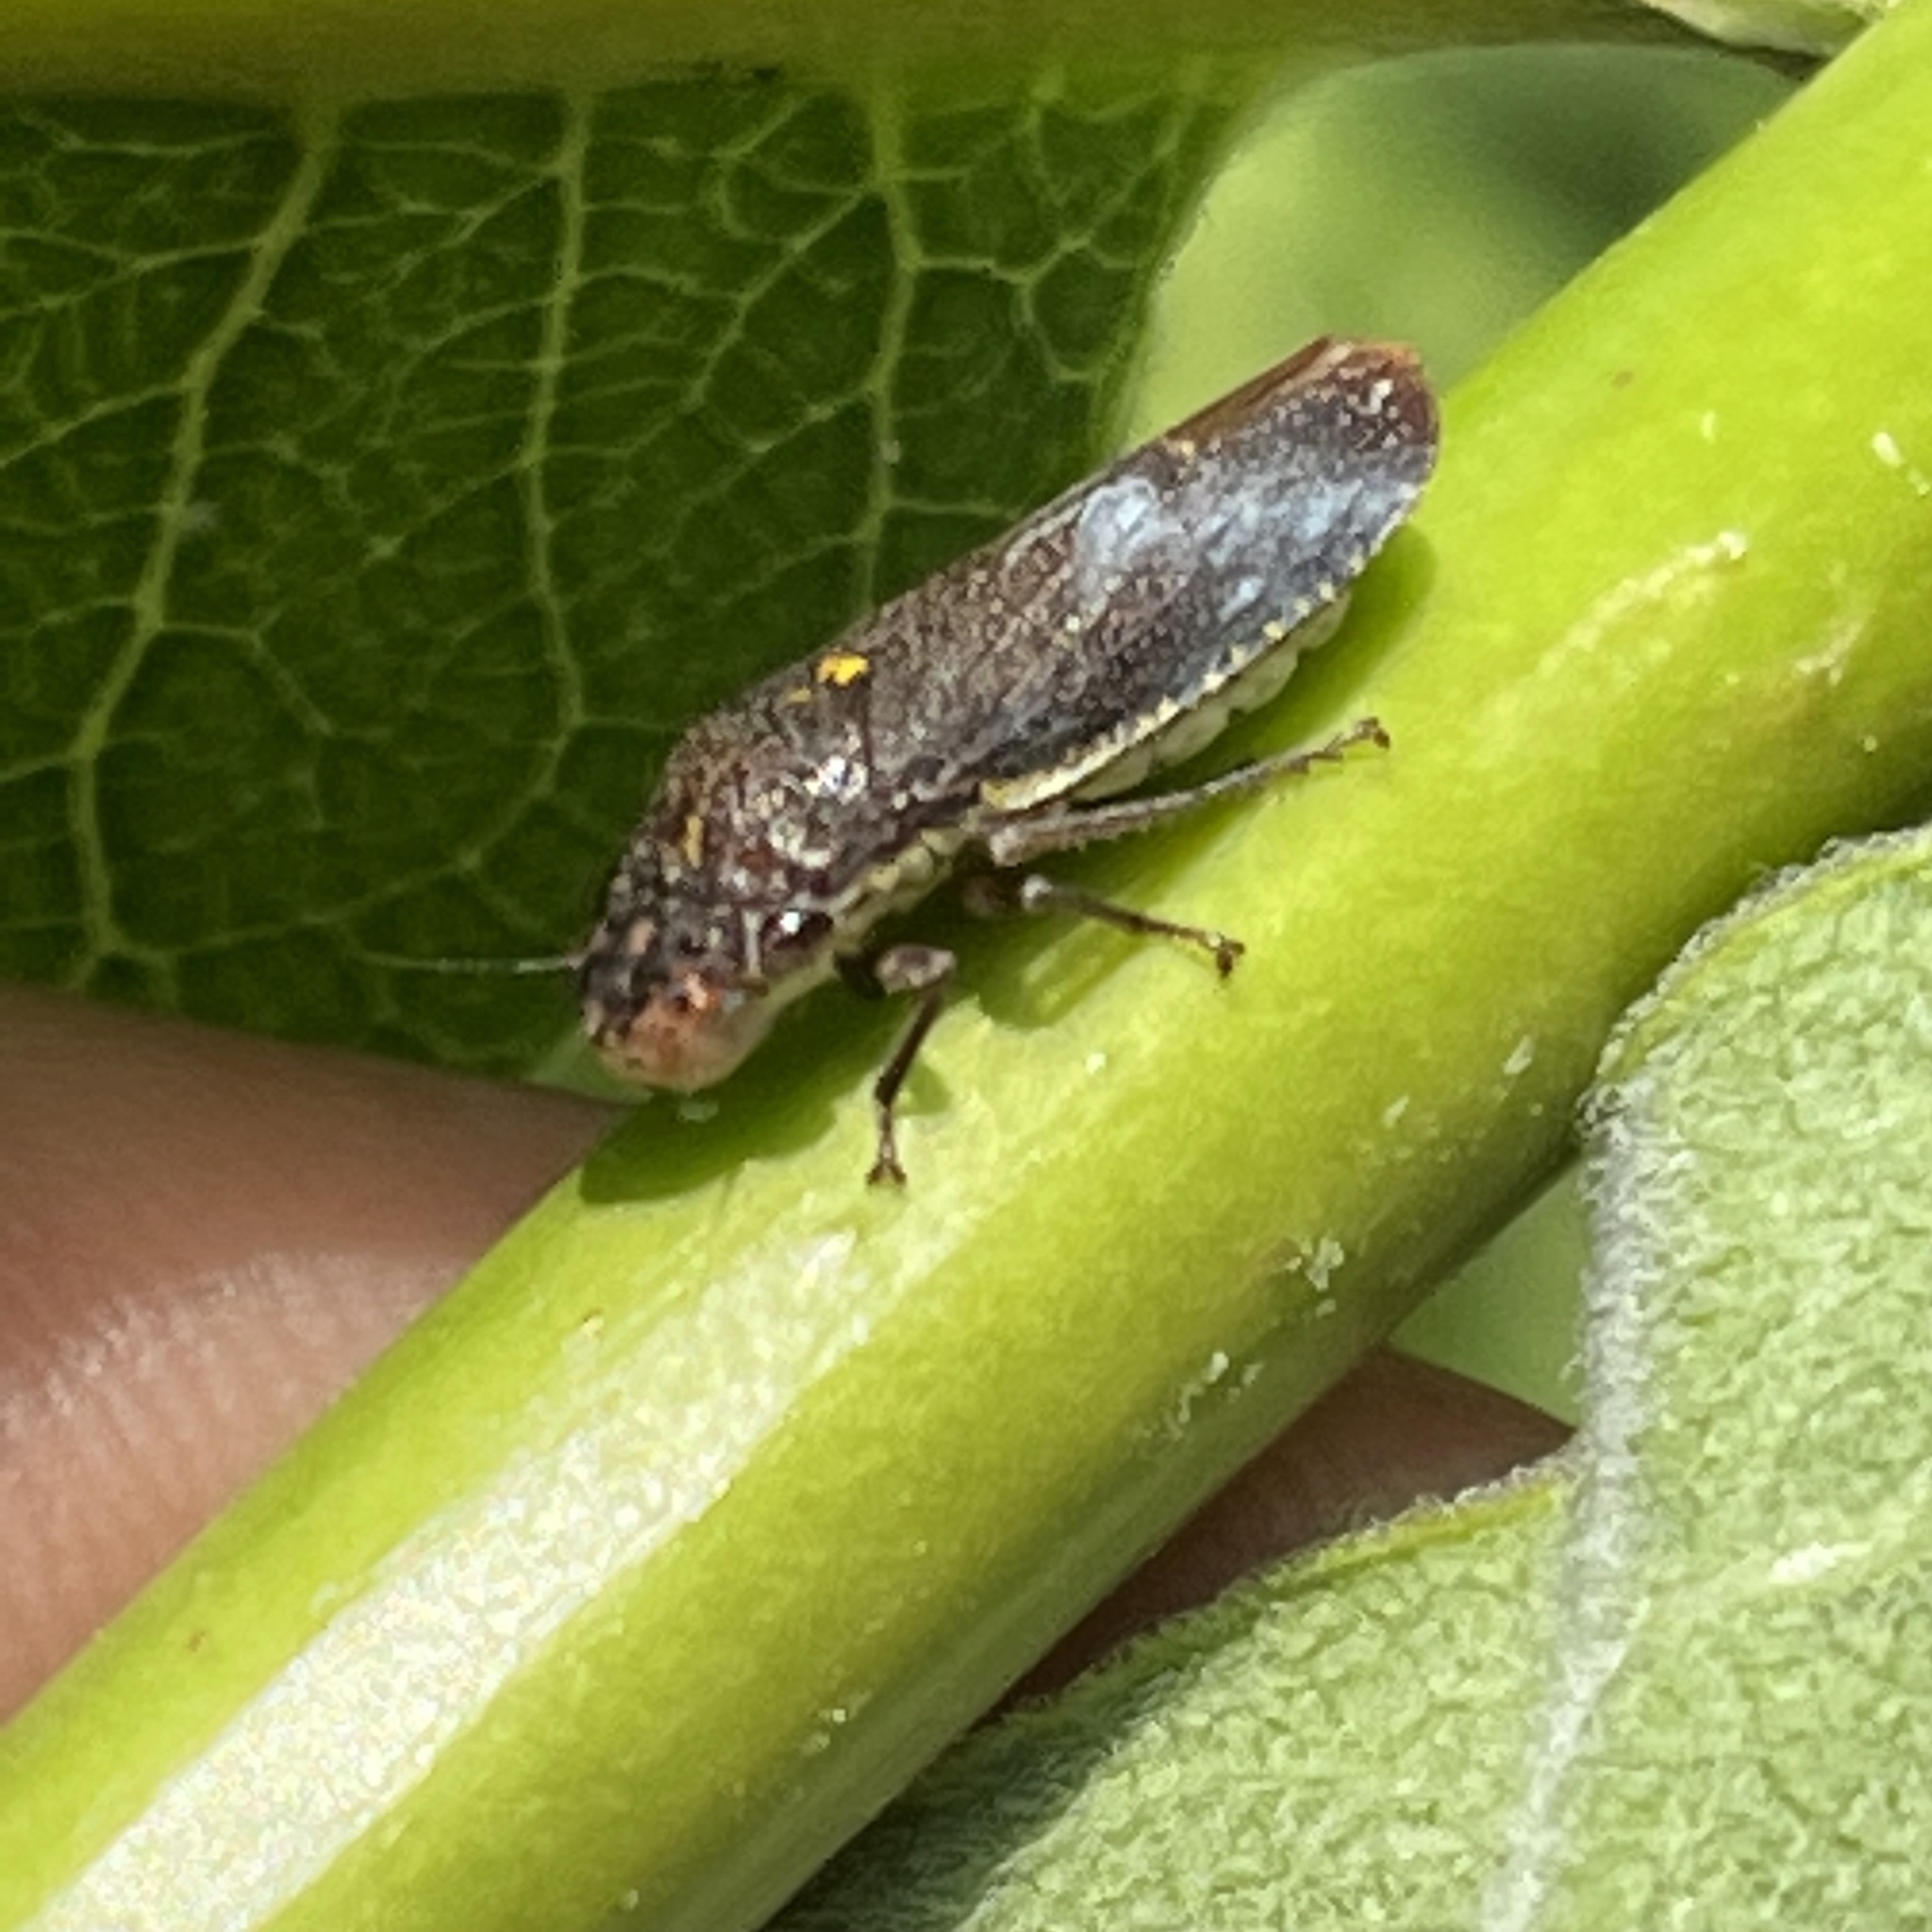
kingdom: Animalia
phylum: Arthropoda
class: Insecta
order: Hemiptera
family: Cicadellidae
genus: Paraulacizes
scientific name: Paraulacizes irrorata
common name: Speckled sharpshooter
